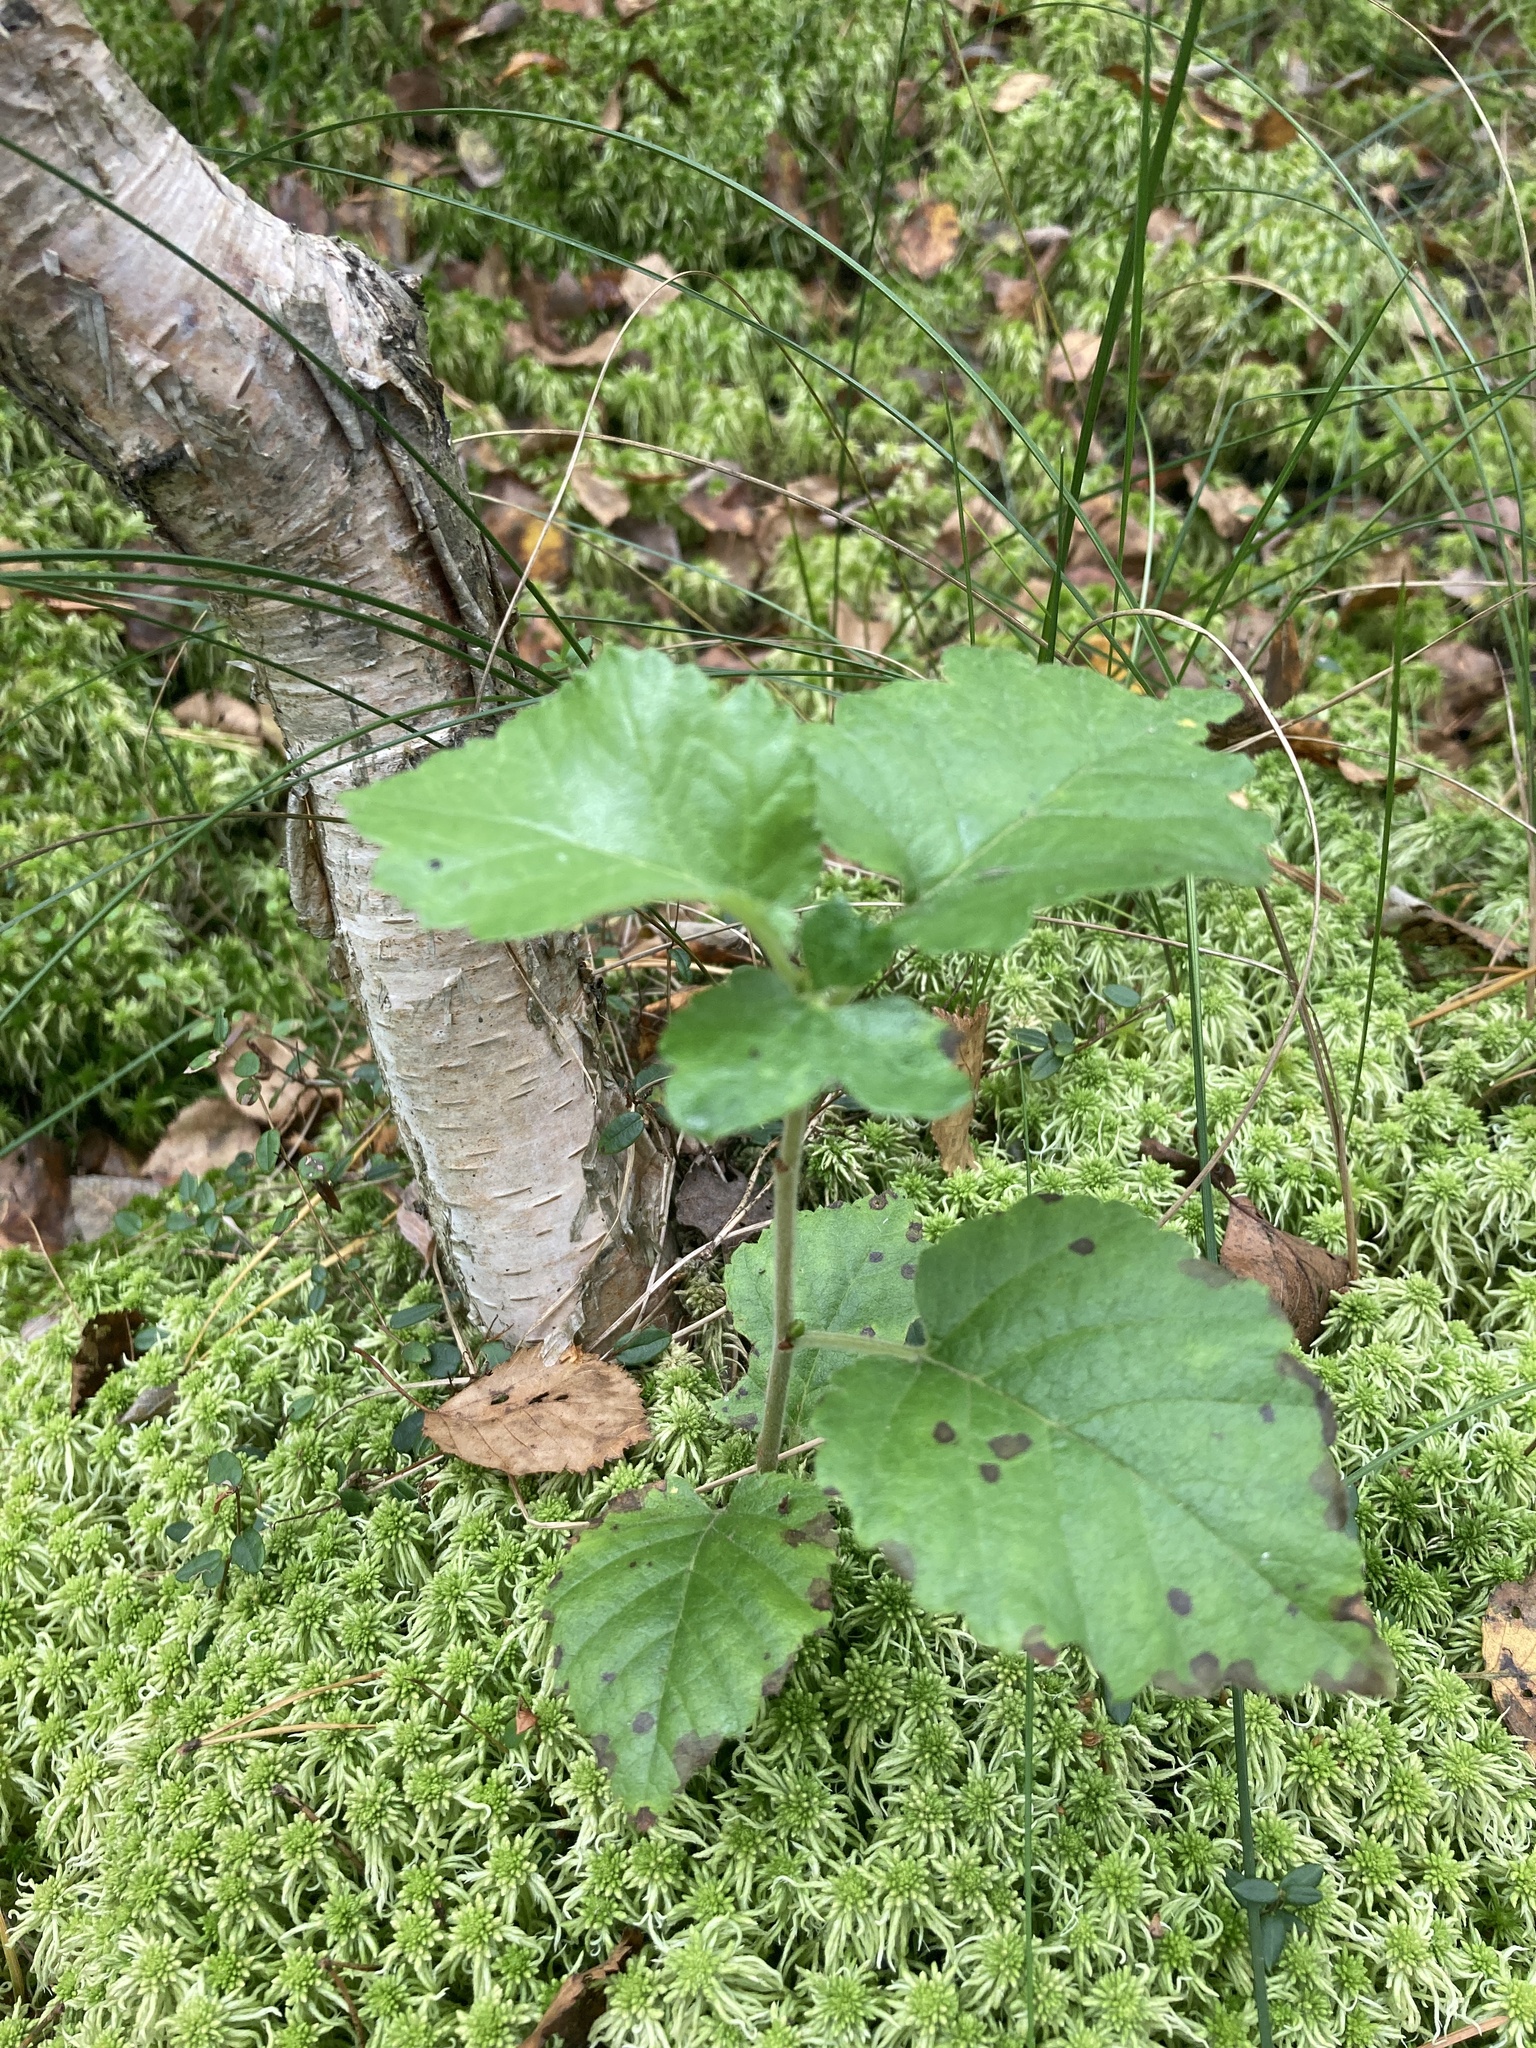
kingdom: Plantae
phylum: Tracheophyta
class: Magnoliopsida
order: Fagales
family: Betulaceae
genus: Betula
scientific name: Betula pubescens
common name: Downy birch
